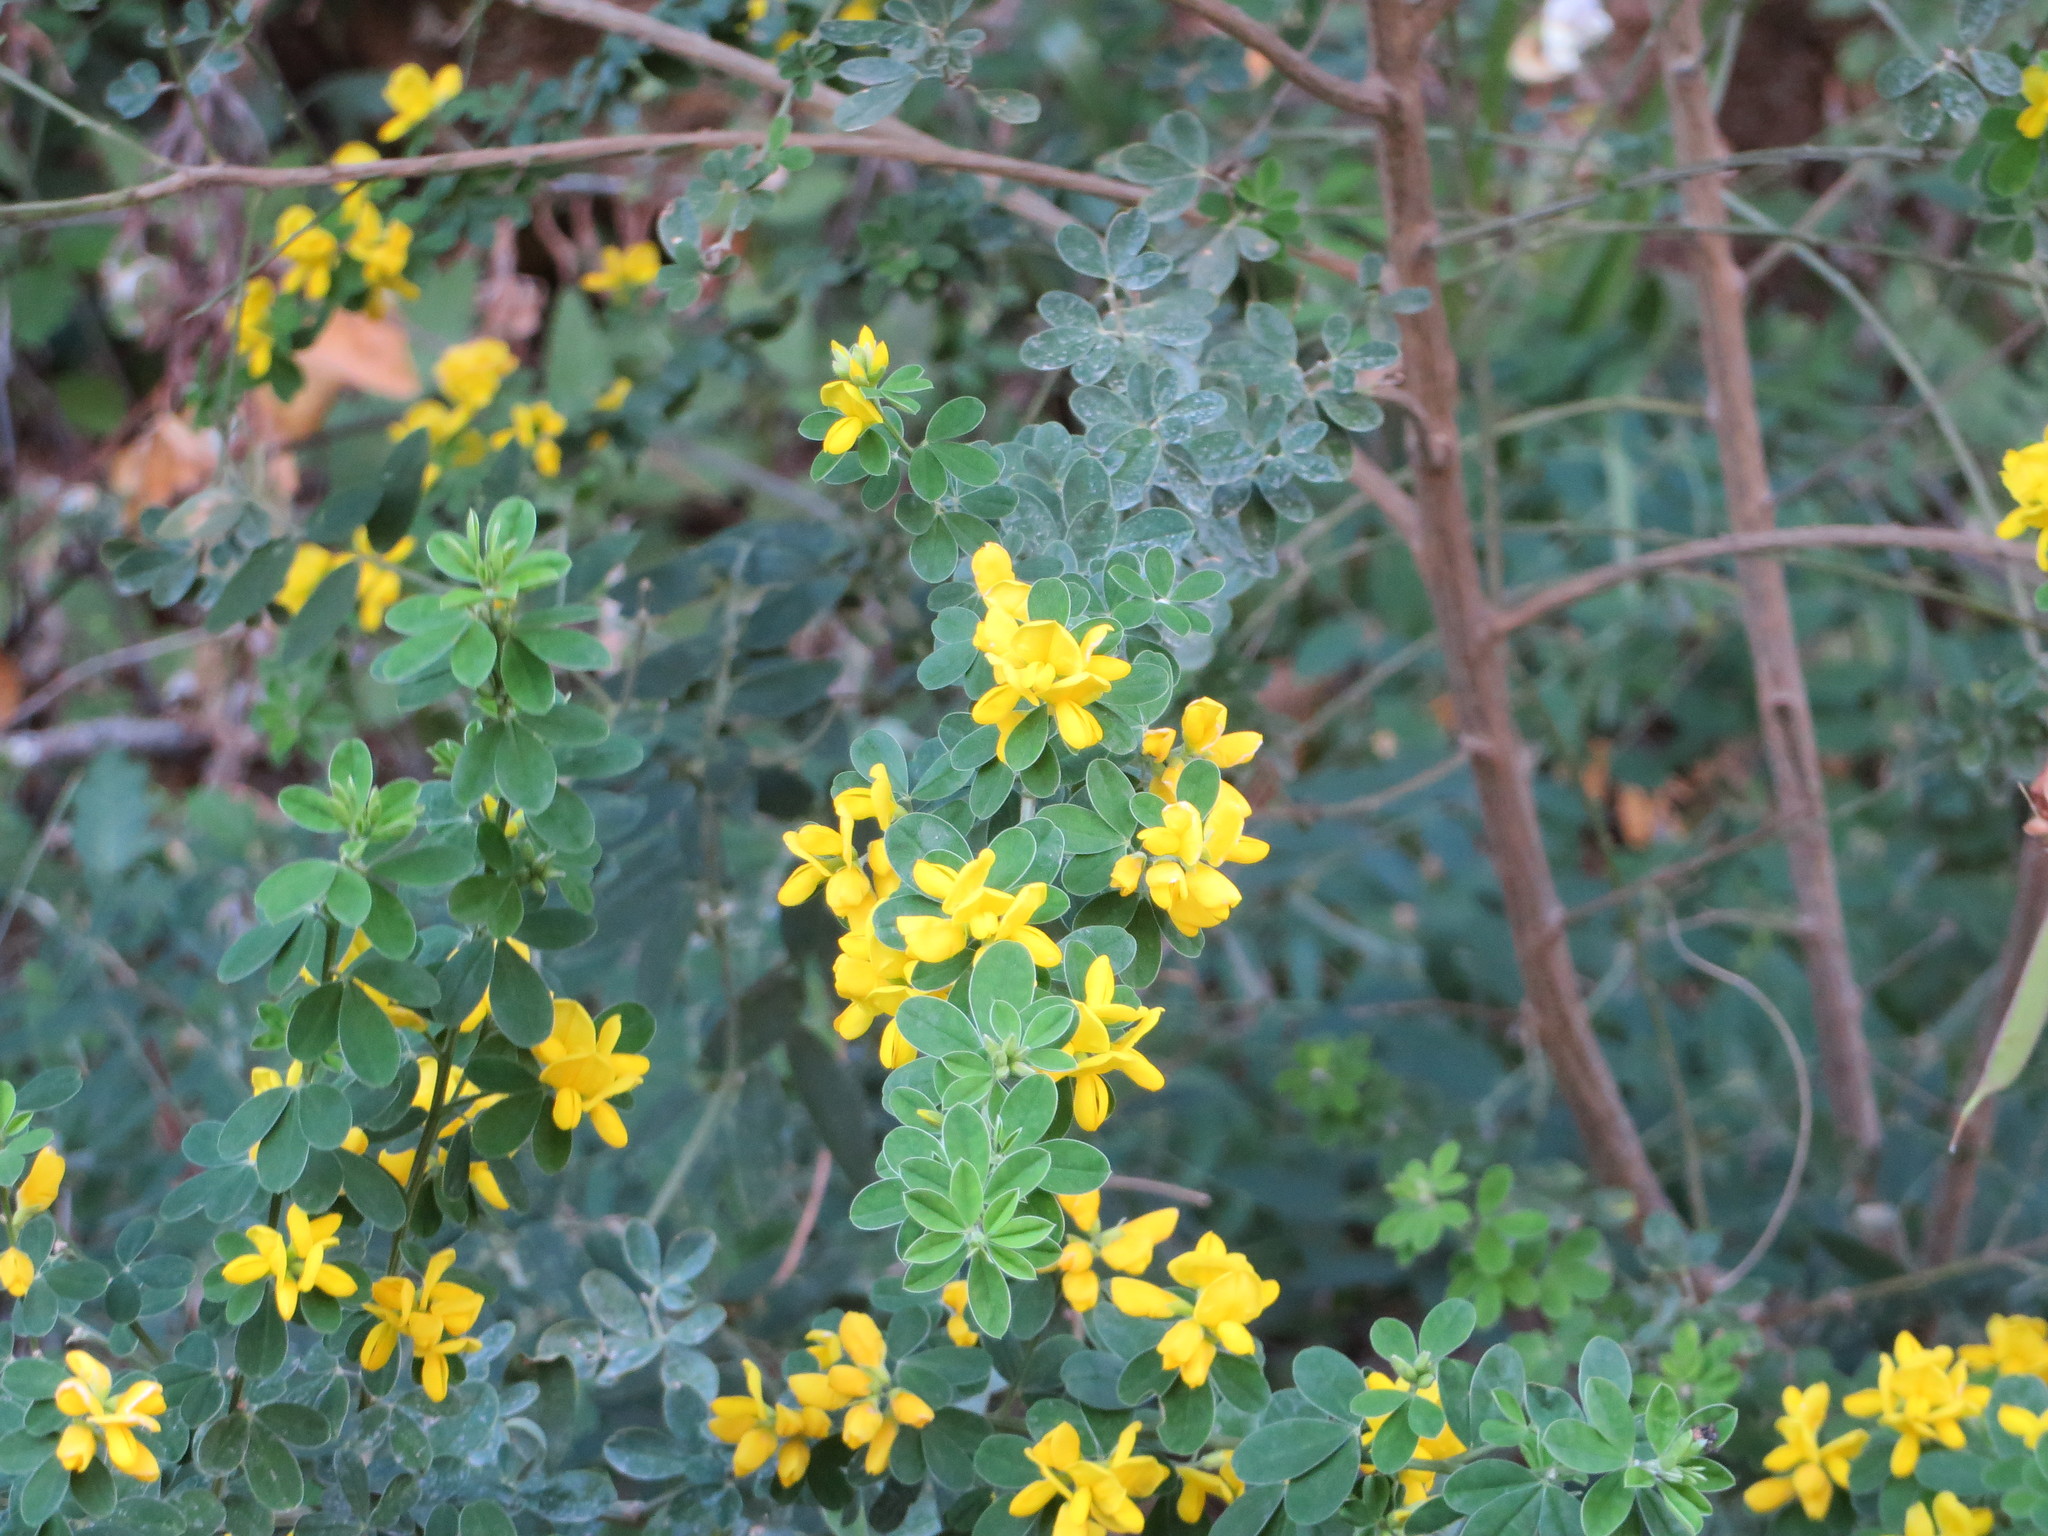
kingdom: Plantae
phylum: Tracheophyta
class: Magnoliopsida
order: Fabales
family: Fabaceae
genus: Genista
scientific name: Genista monspessulana
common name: Montpellier broom
